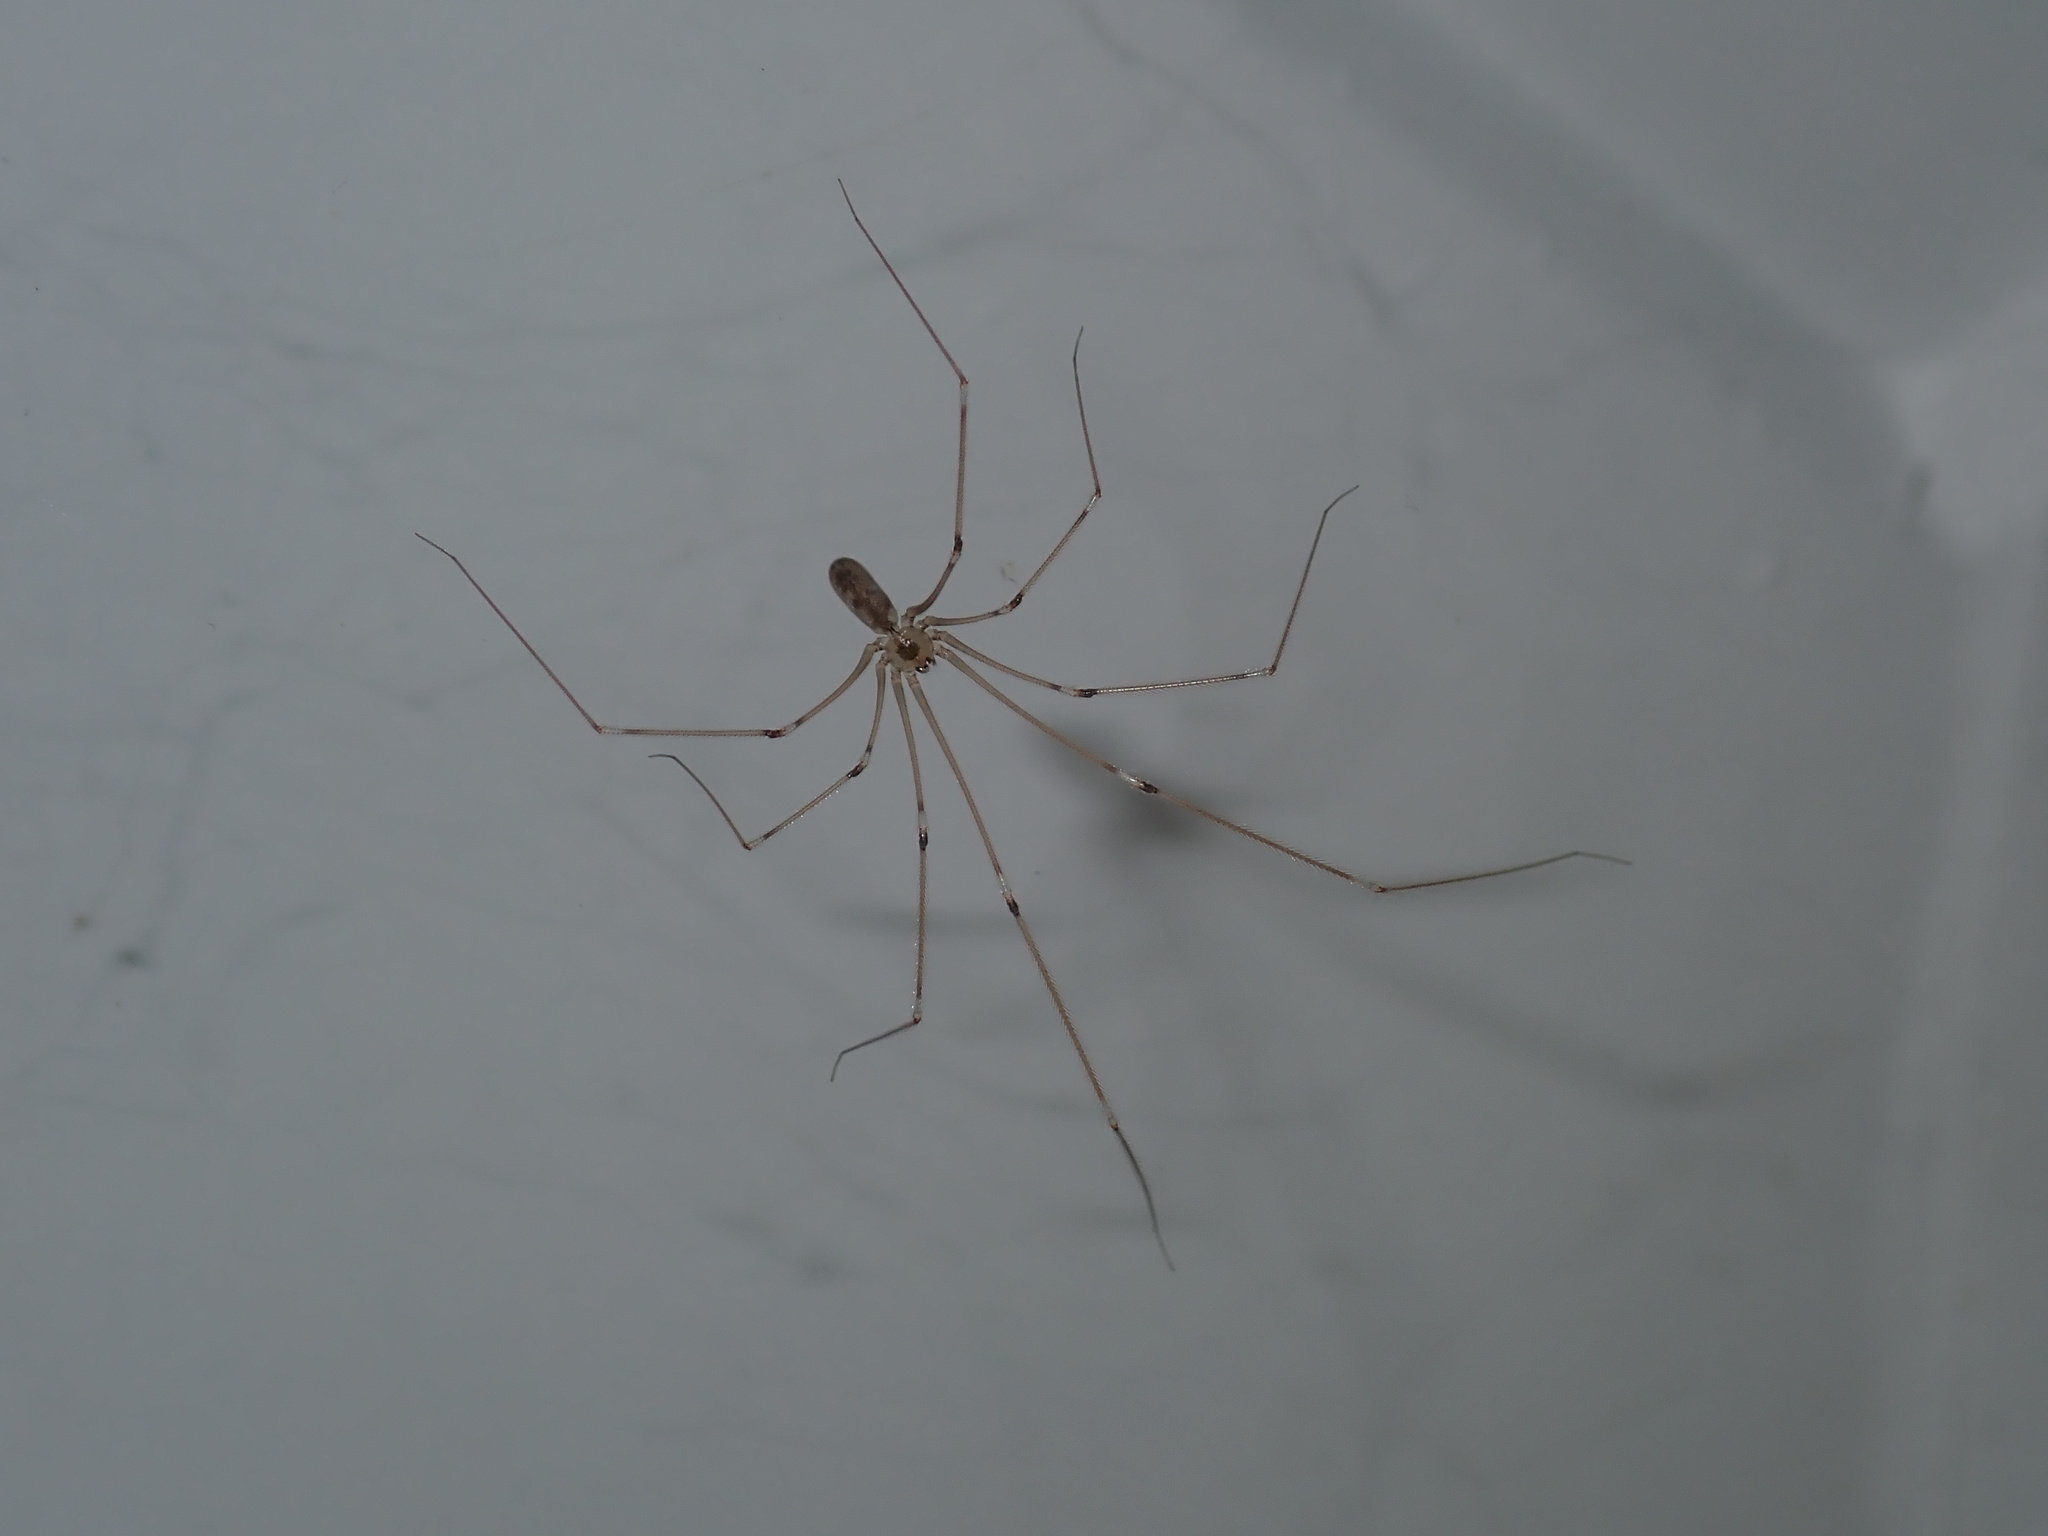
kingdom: Animalia
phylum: Arthropoda
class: Arachnida
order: Araneae
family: Pholcidae
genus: Pholcus
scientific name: Pholcus phalangioides
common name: Longbodied cellar spider
